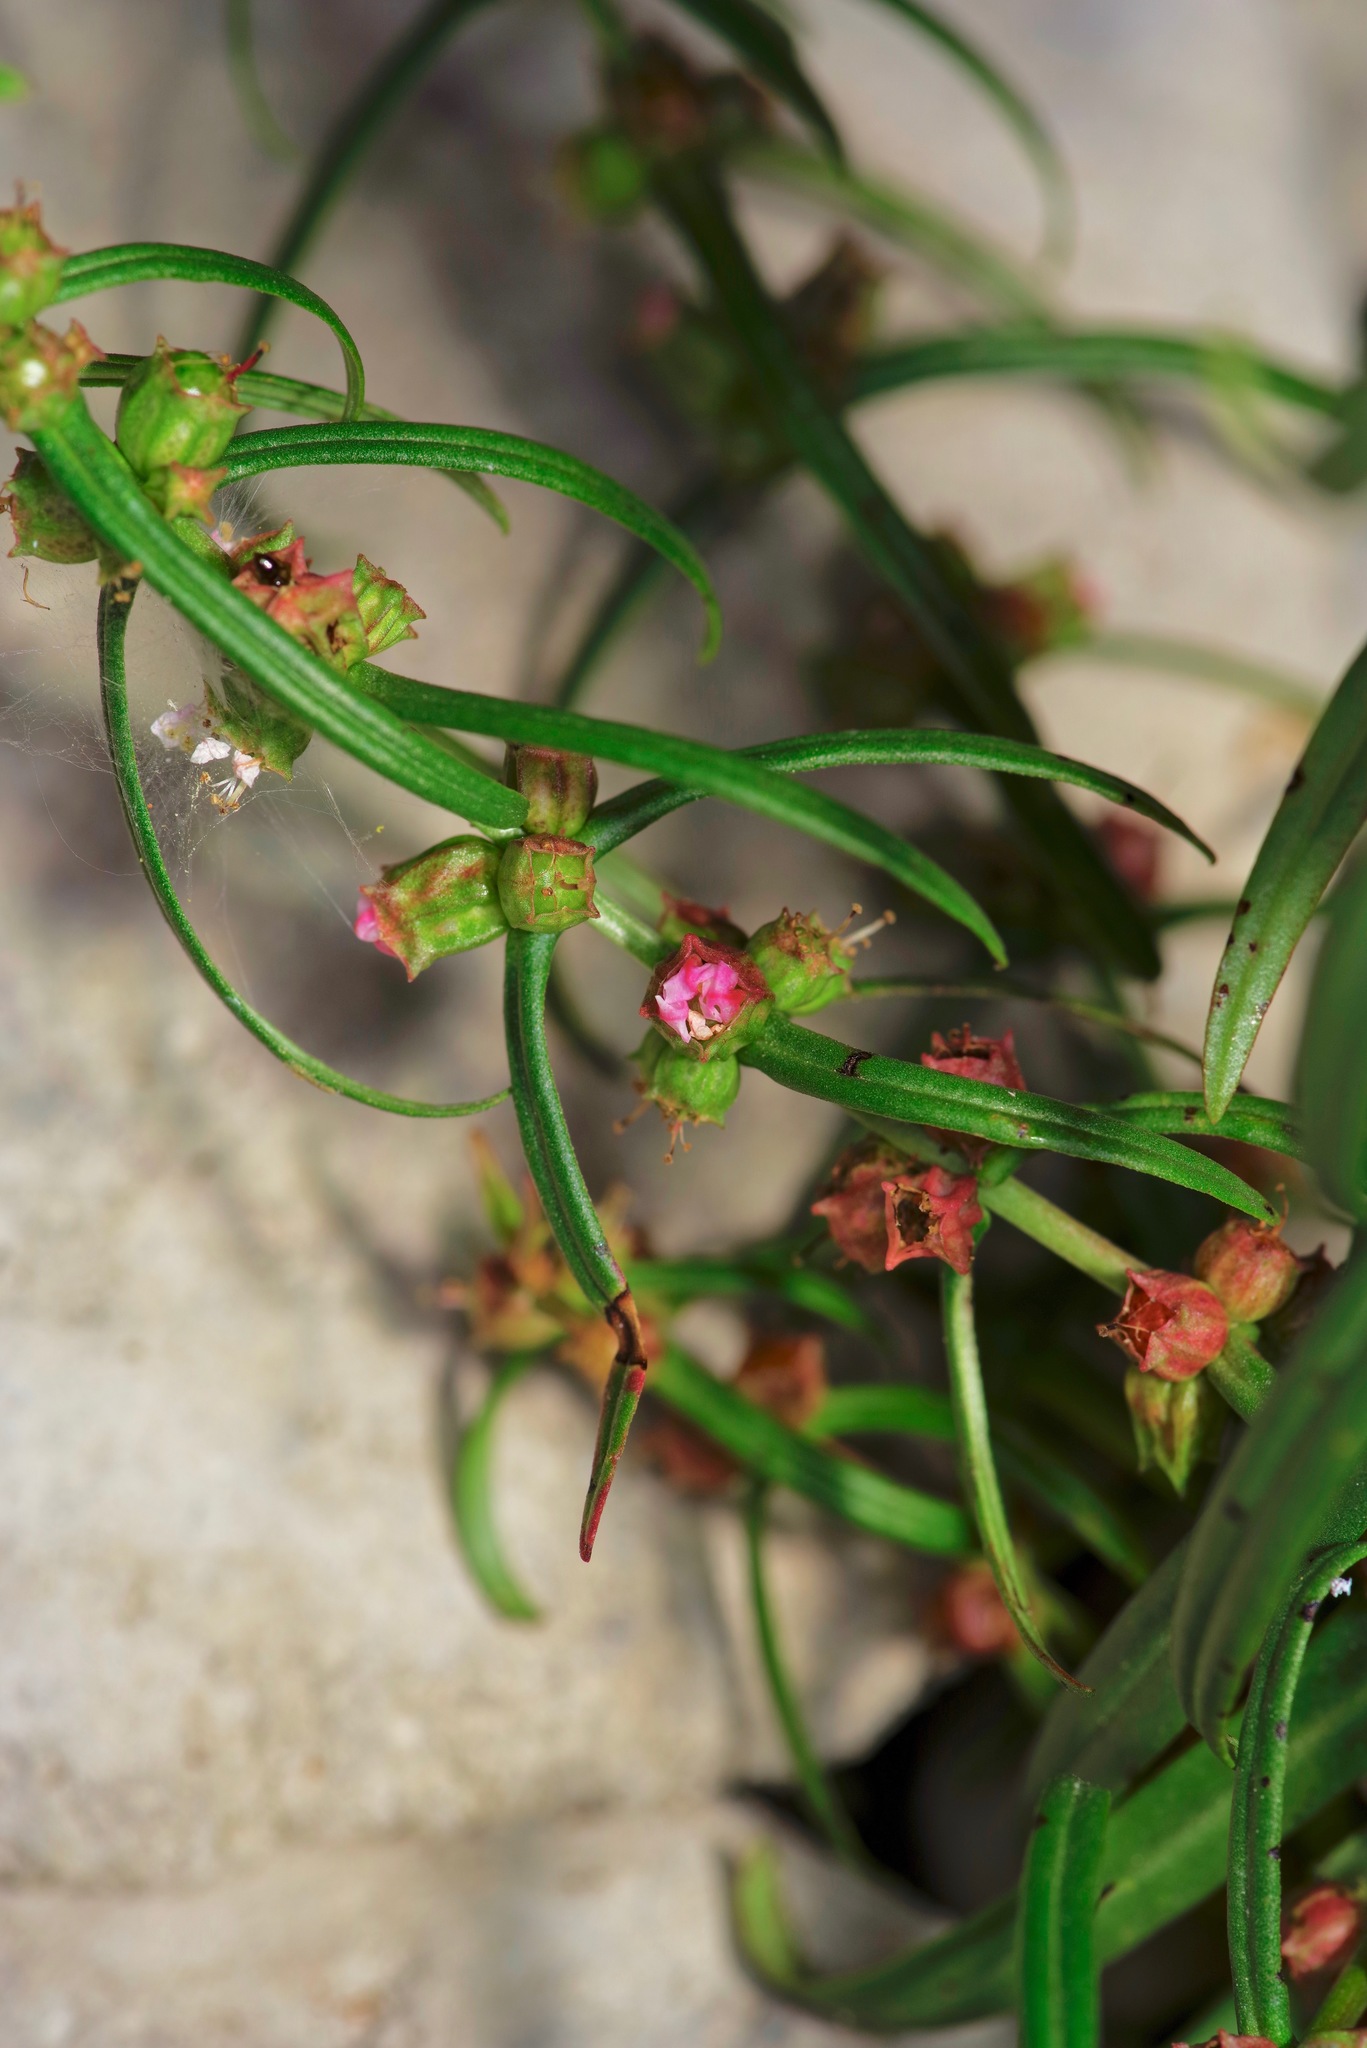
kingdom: Plantae
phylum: Tracheophyta
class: Magnoliopsida
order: Myrtales
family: Lythraceae
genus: Ammannia
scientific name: Ammannia coccinea
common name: Valley redstem
